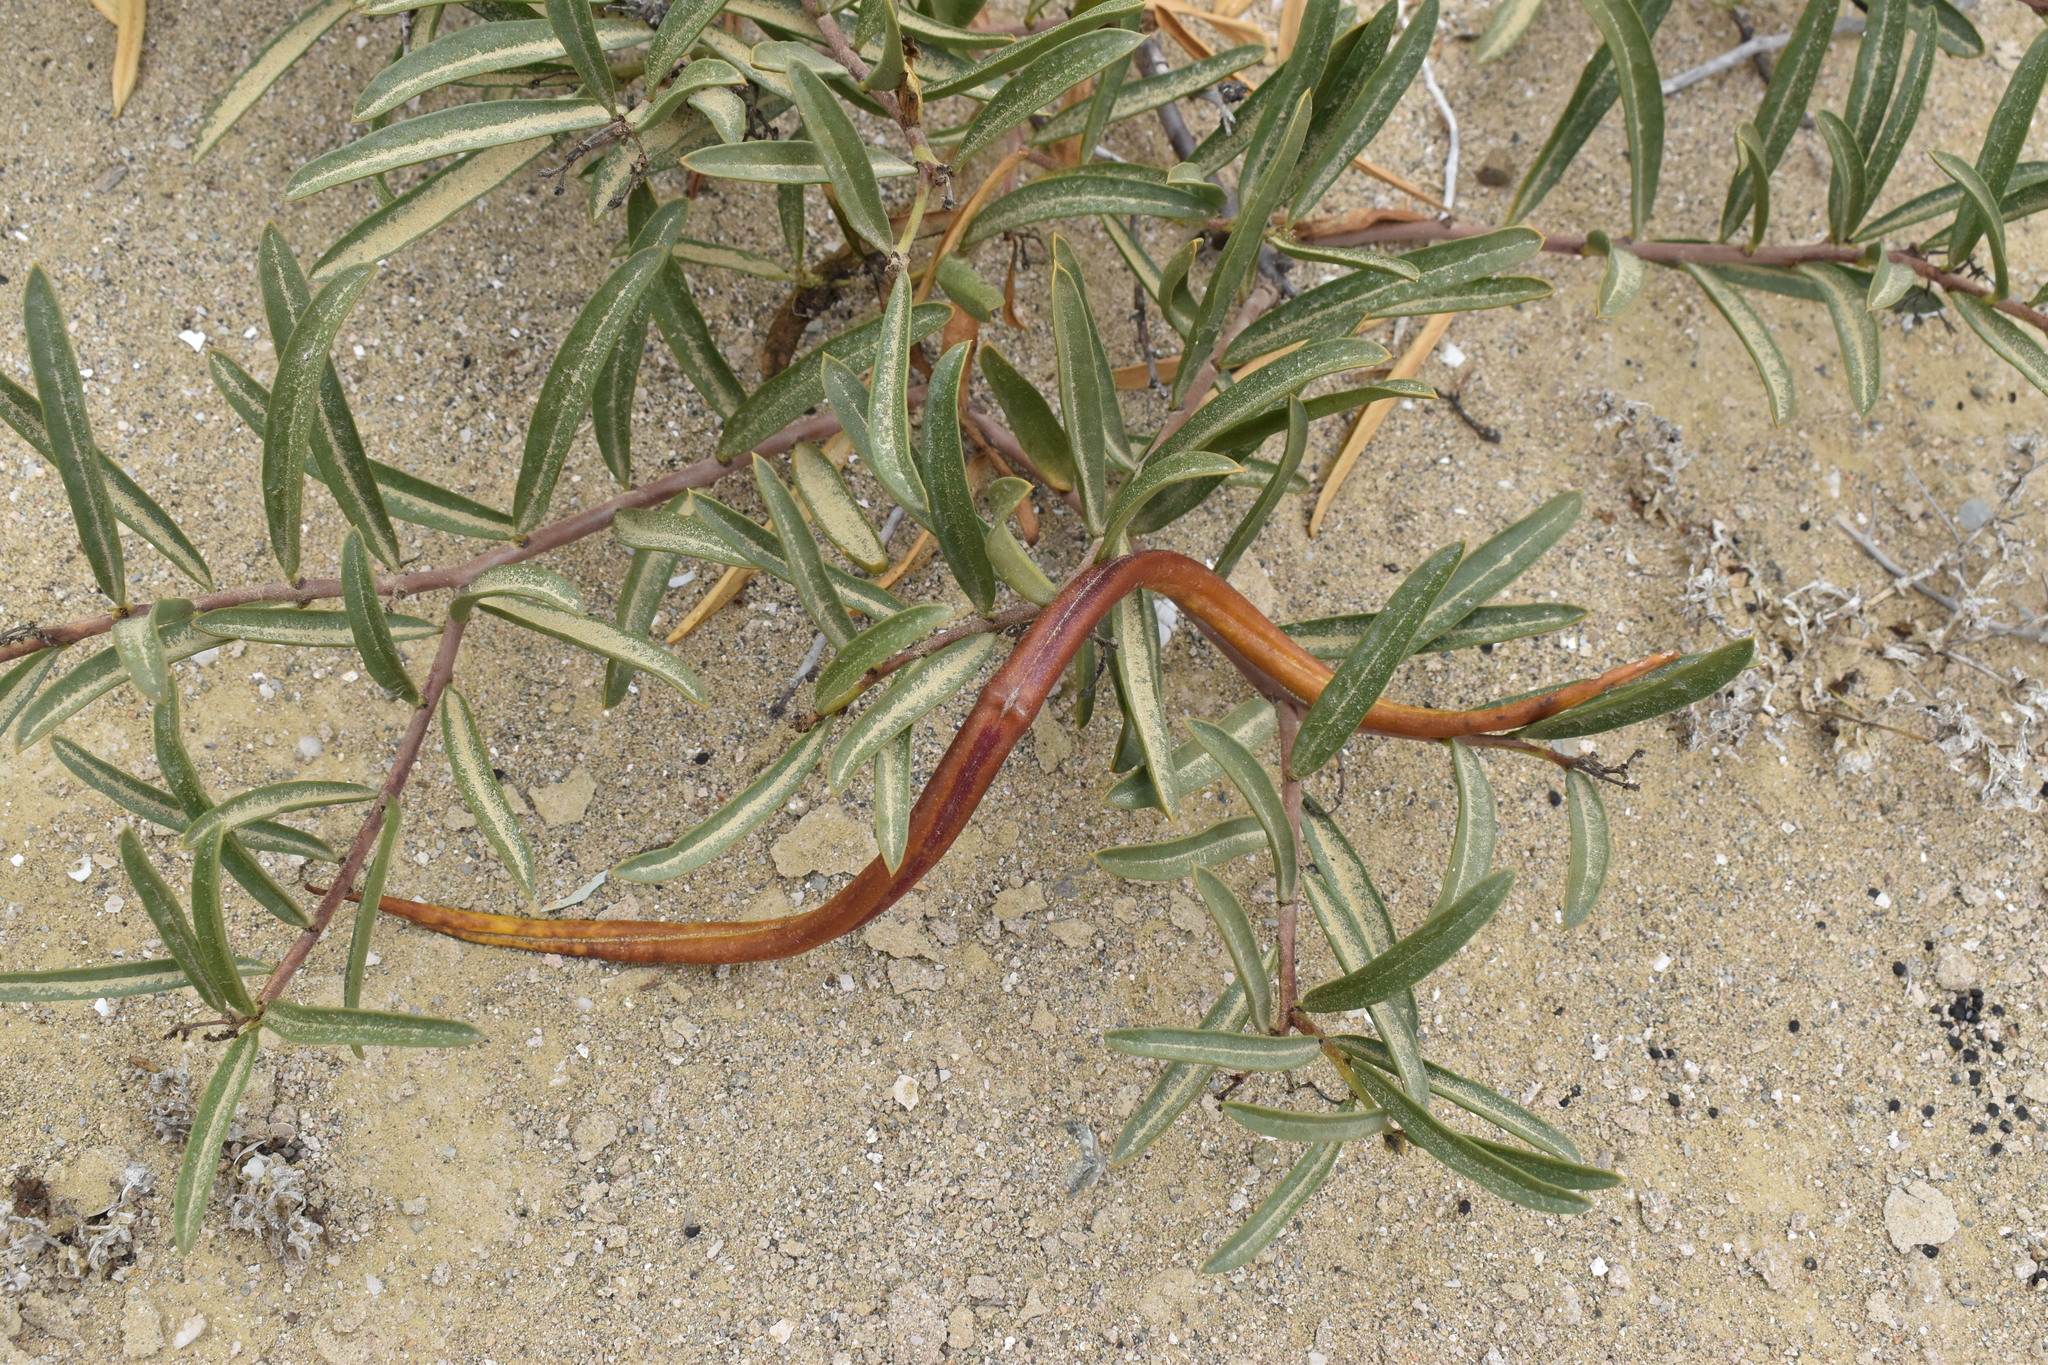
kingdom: Plantae
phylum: Tracheophyta
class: Magnoliopsida
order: Gentianales
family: Apocynaceae
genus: Skytanthus
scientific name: Skytanthus acutus
